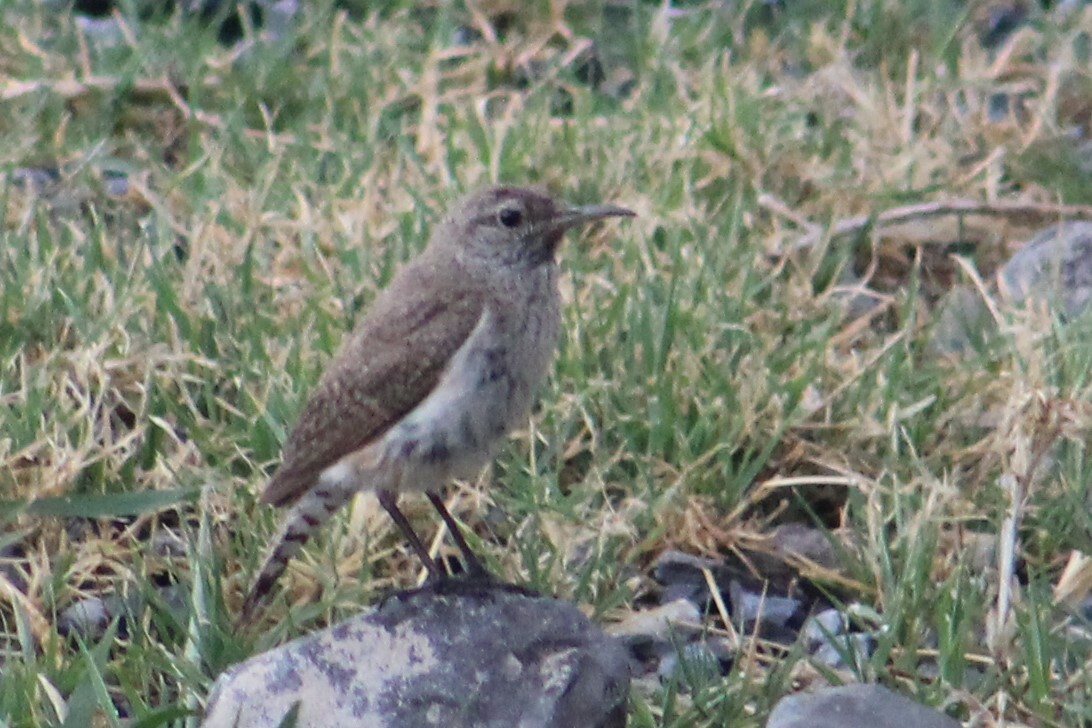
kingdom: Animalia
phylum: Chordata
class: Aves
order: Passeriformes
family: Troglodytidae
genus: Salpinctes
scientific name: Salpinctes obsoletus
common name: Rock wren
